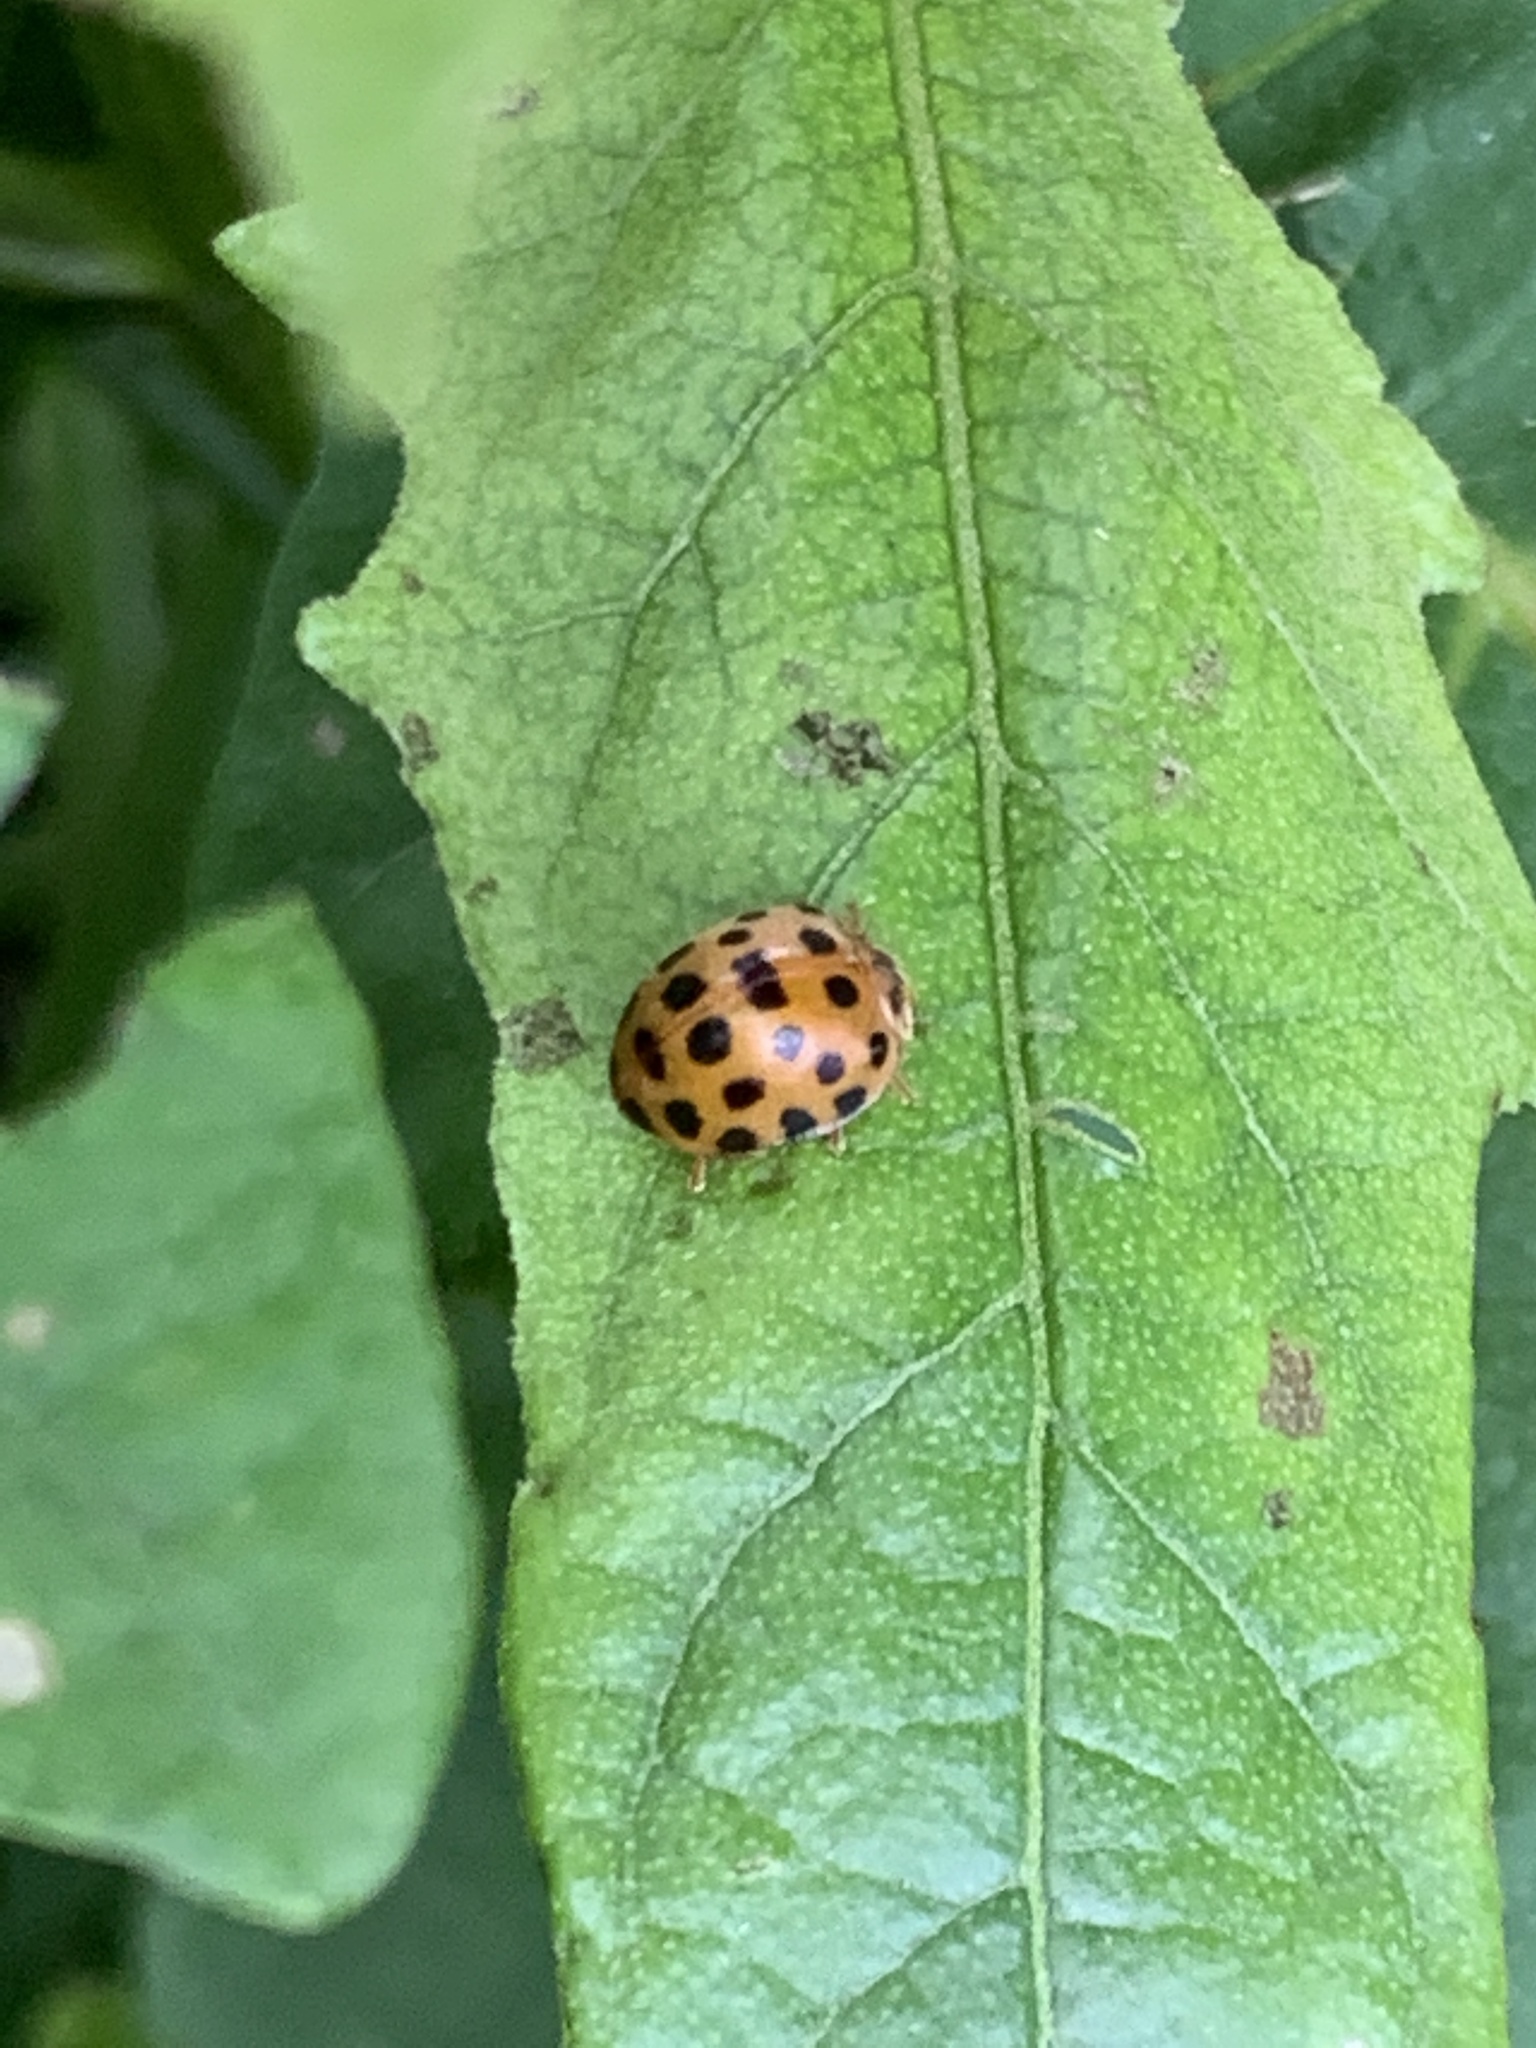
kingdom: Animalia
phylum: Arthropoda
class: Insecta
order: Coleoptera
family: Coccinellidae
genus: Henosepilachna
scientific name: Henosepilachna vigintioctopunctata
